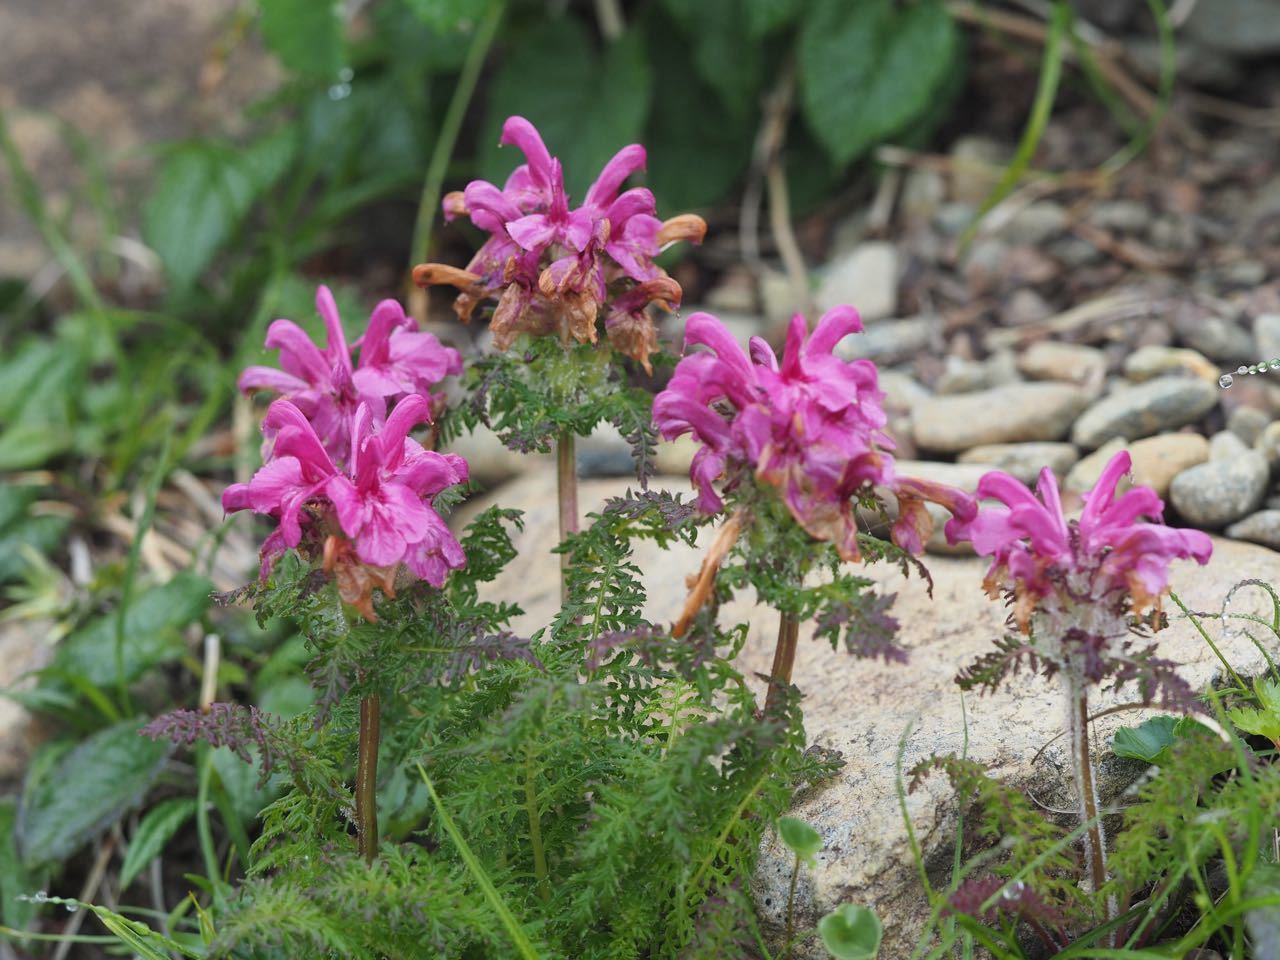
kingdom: Plantae
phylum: Tracheophyta
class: Magnoliopsida
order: Lamiales
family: Orobanchaceae
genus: Pedicularis
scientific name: Pedicularis apodochila
